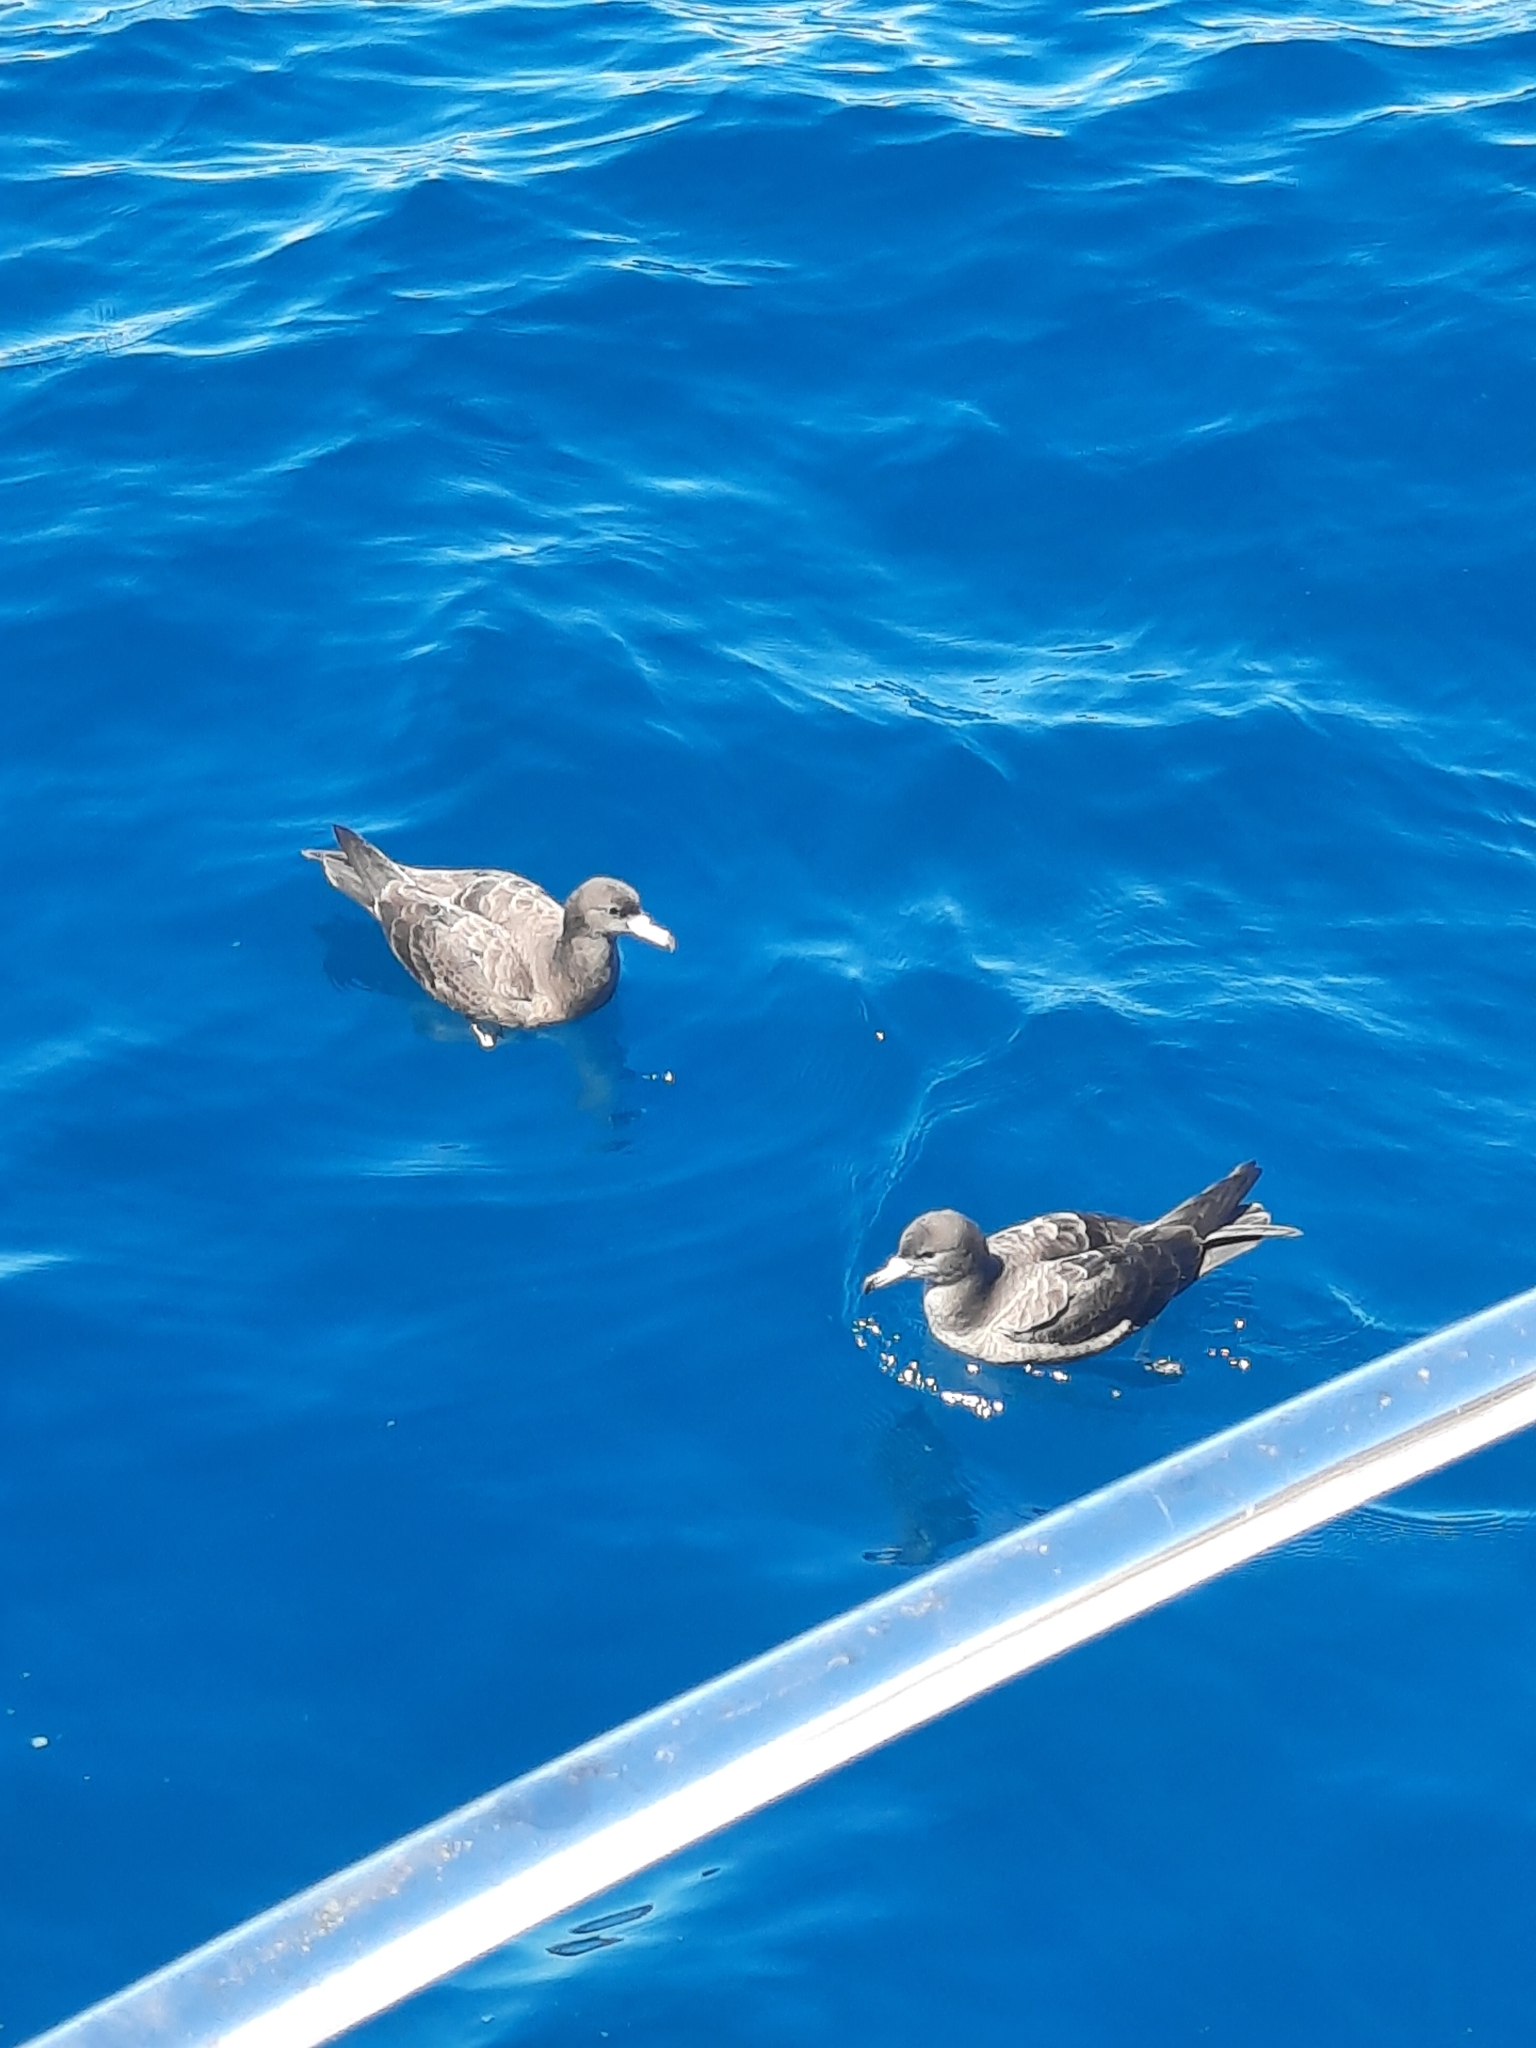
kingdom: Animalia
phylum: Chordata
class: Aves
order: Procellariiformes
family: Procellariidae
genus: Puffinus
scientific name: Puffinus carneipes
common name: Flesh-footed shearwater
